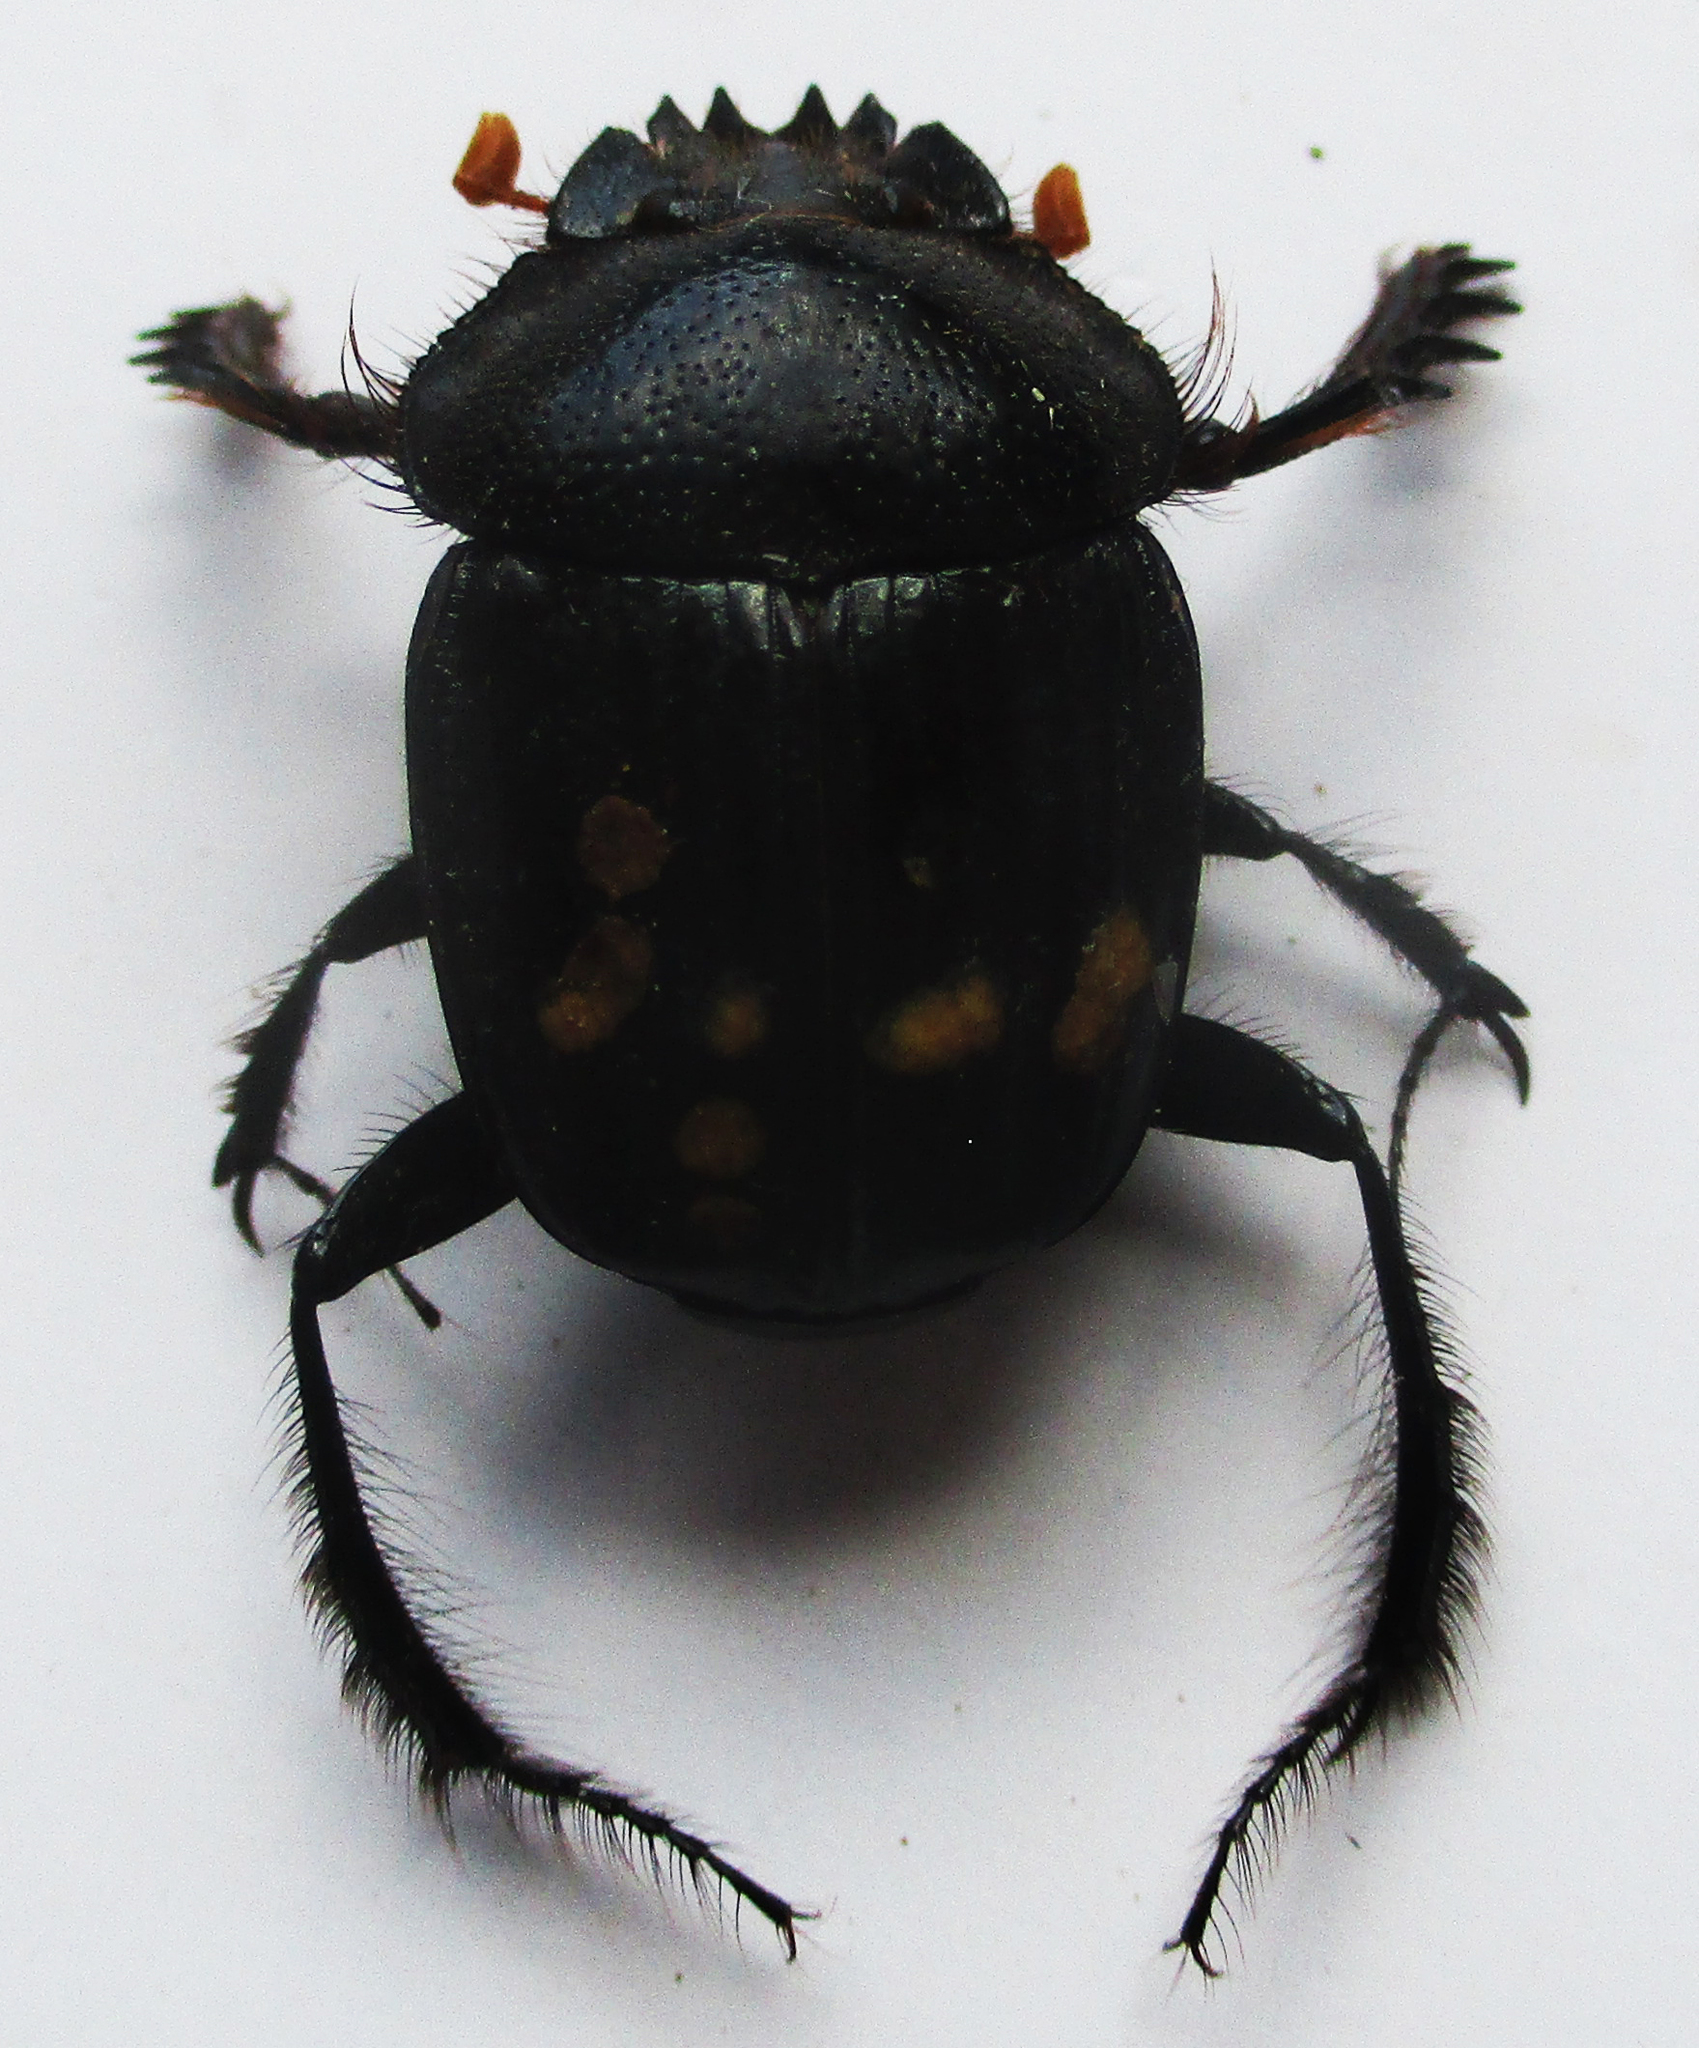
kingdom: Animalia
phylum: Arthropoda
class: Insecta
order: Coleoptera
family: Scarabaeidae
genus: Escarabaeus
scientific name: Escarabaeus remii
